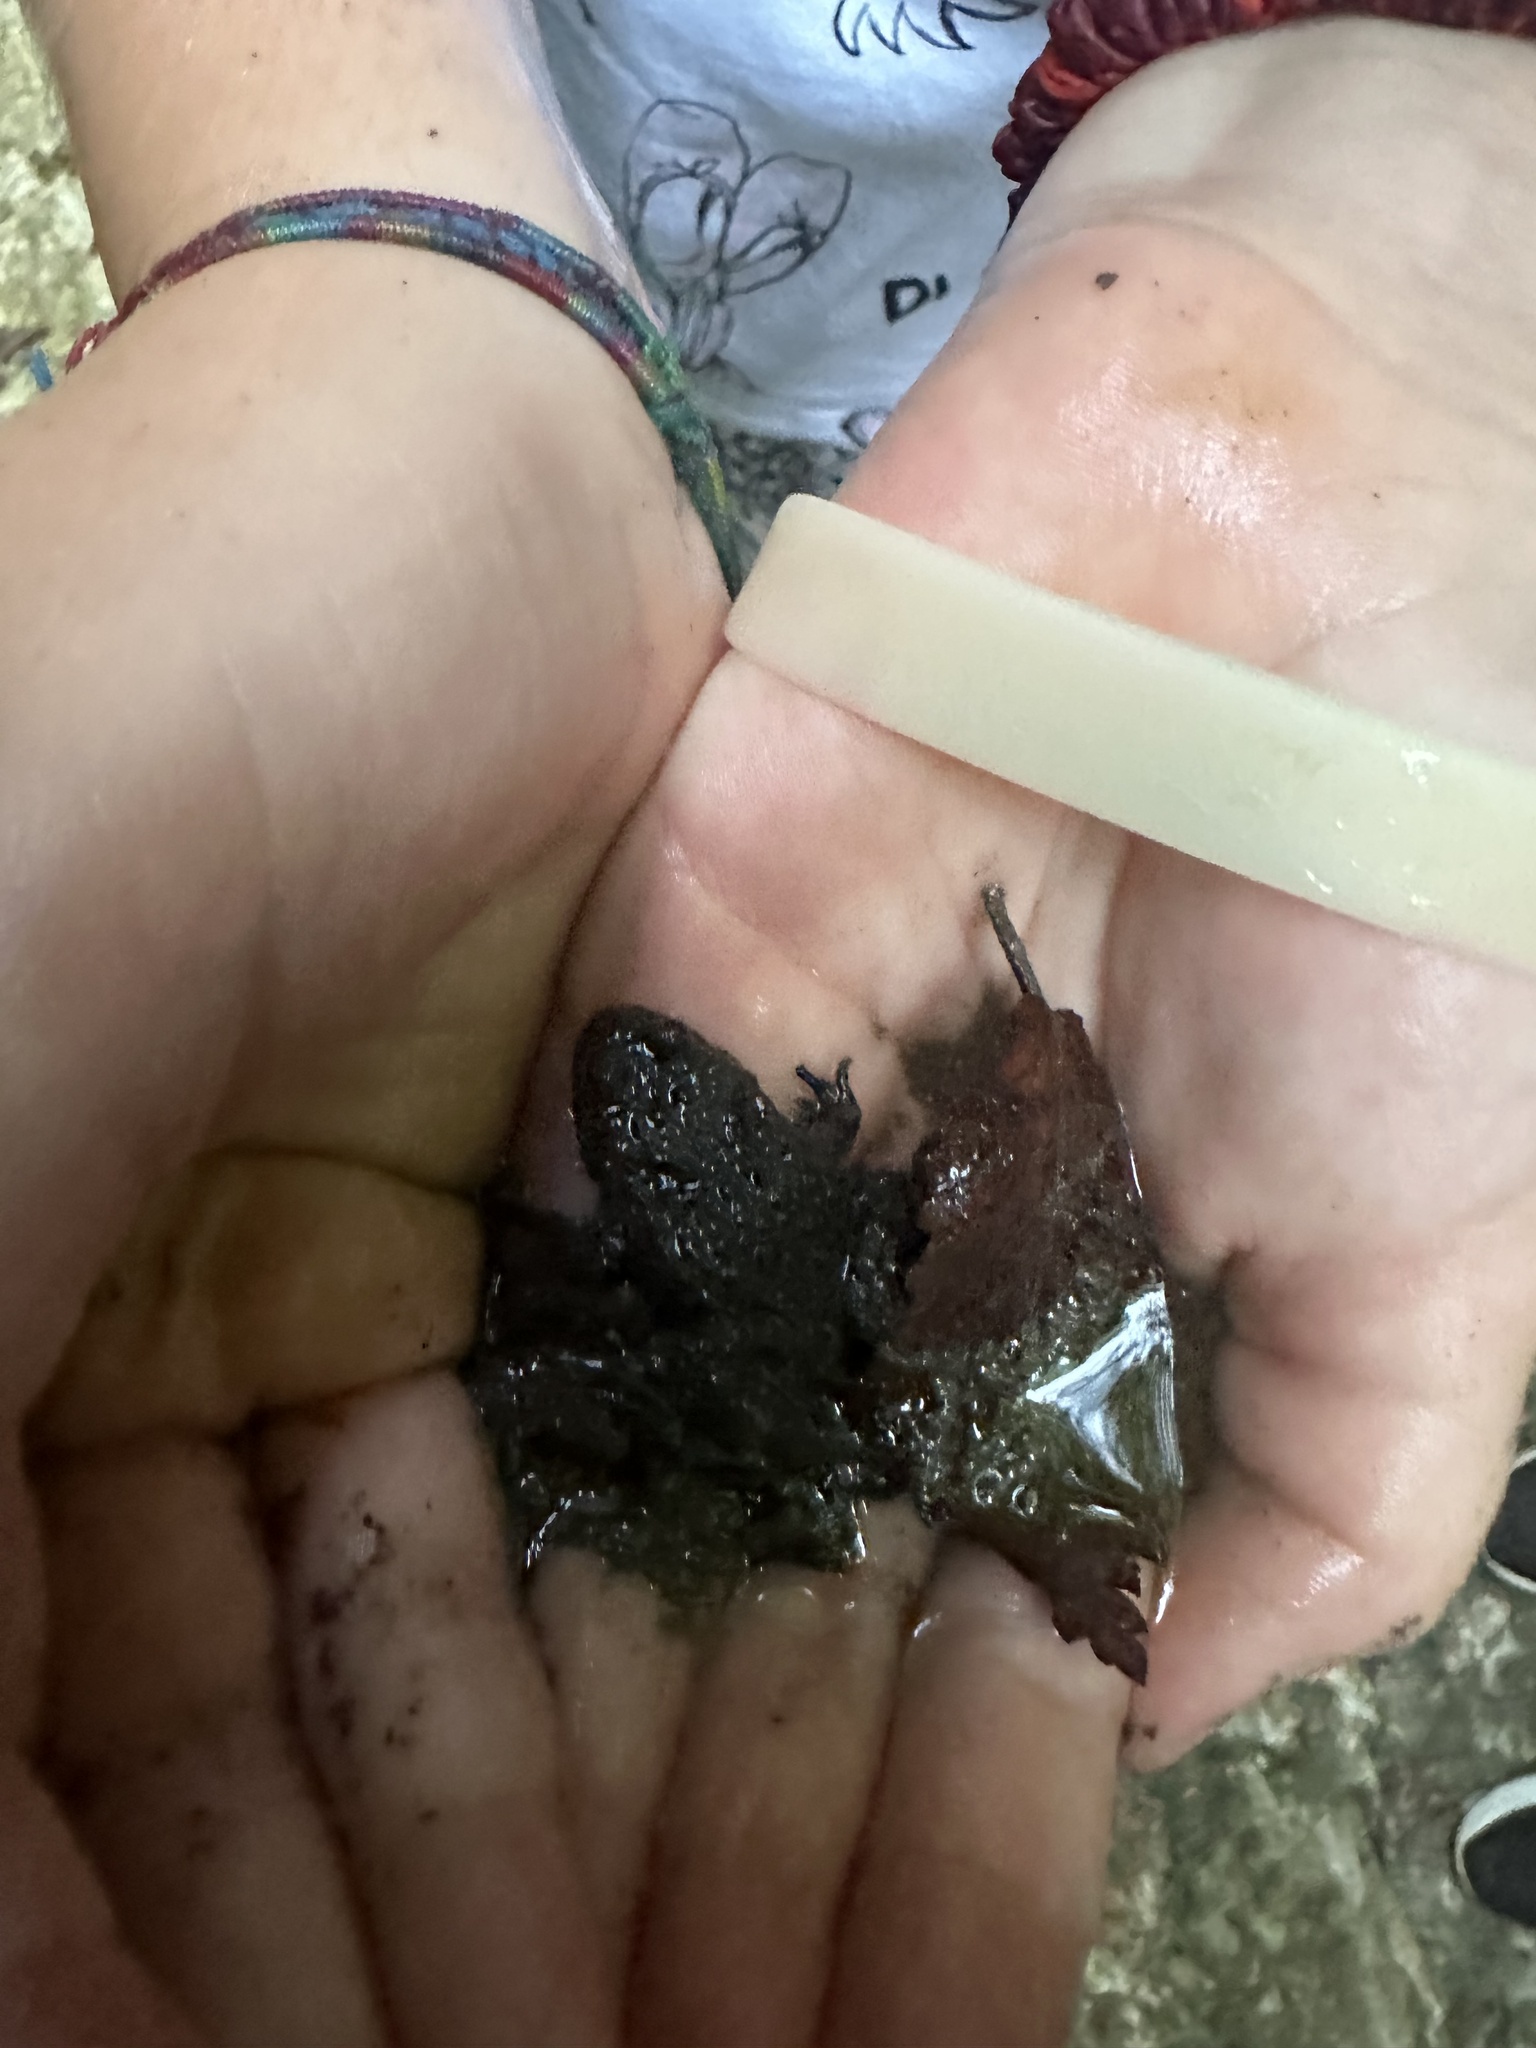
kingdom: Animalia
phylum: Chordata
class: Amphibia
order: Anura
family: Bombinatoridae
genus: Bombina
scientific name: Bombina variegata
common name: Yellow-bellied toad
